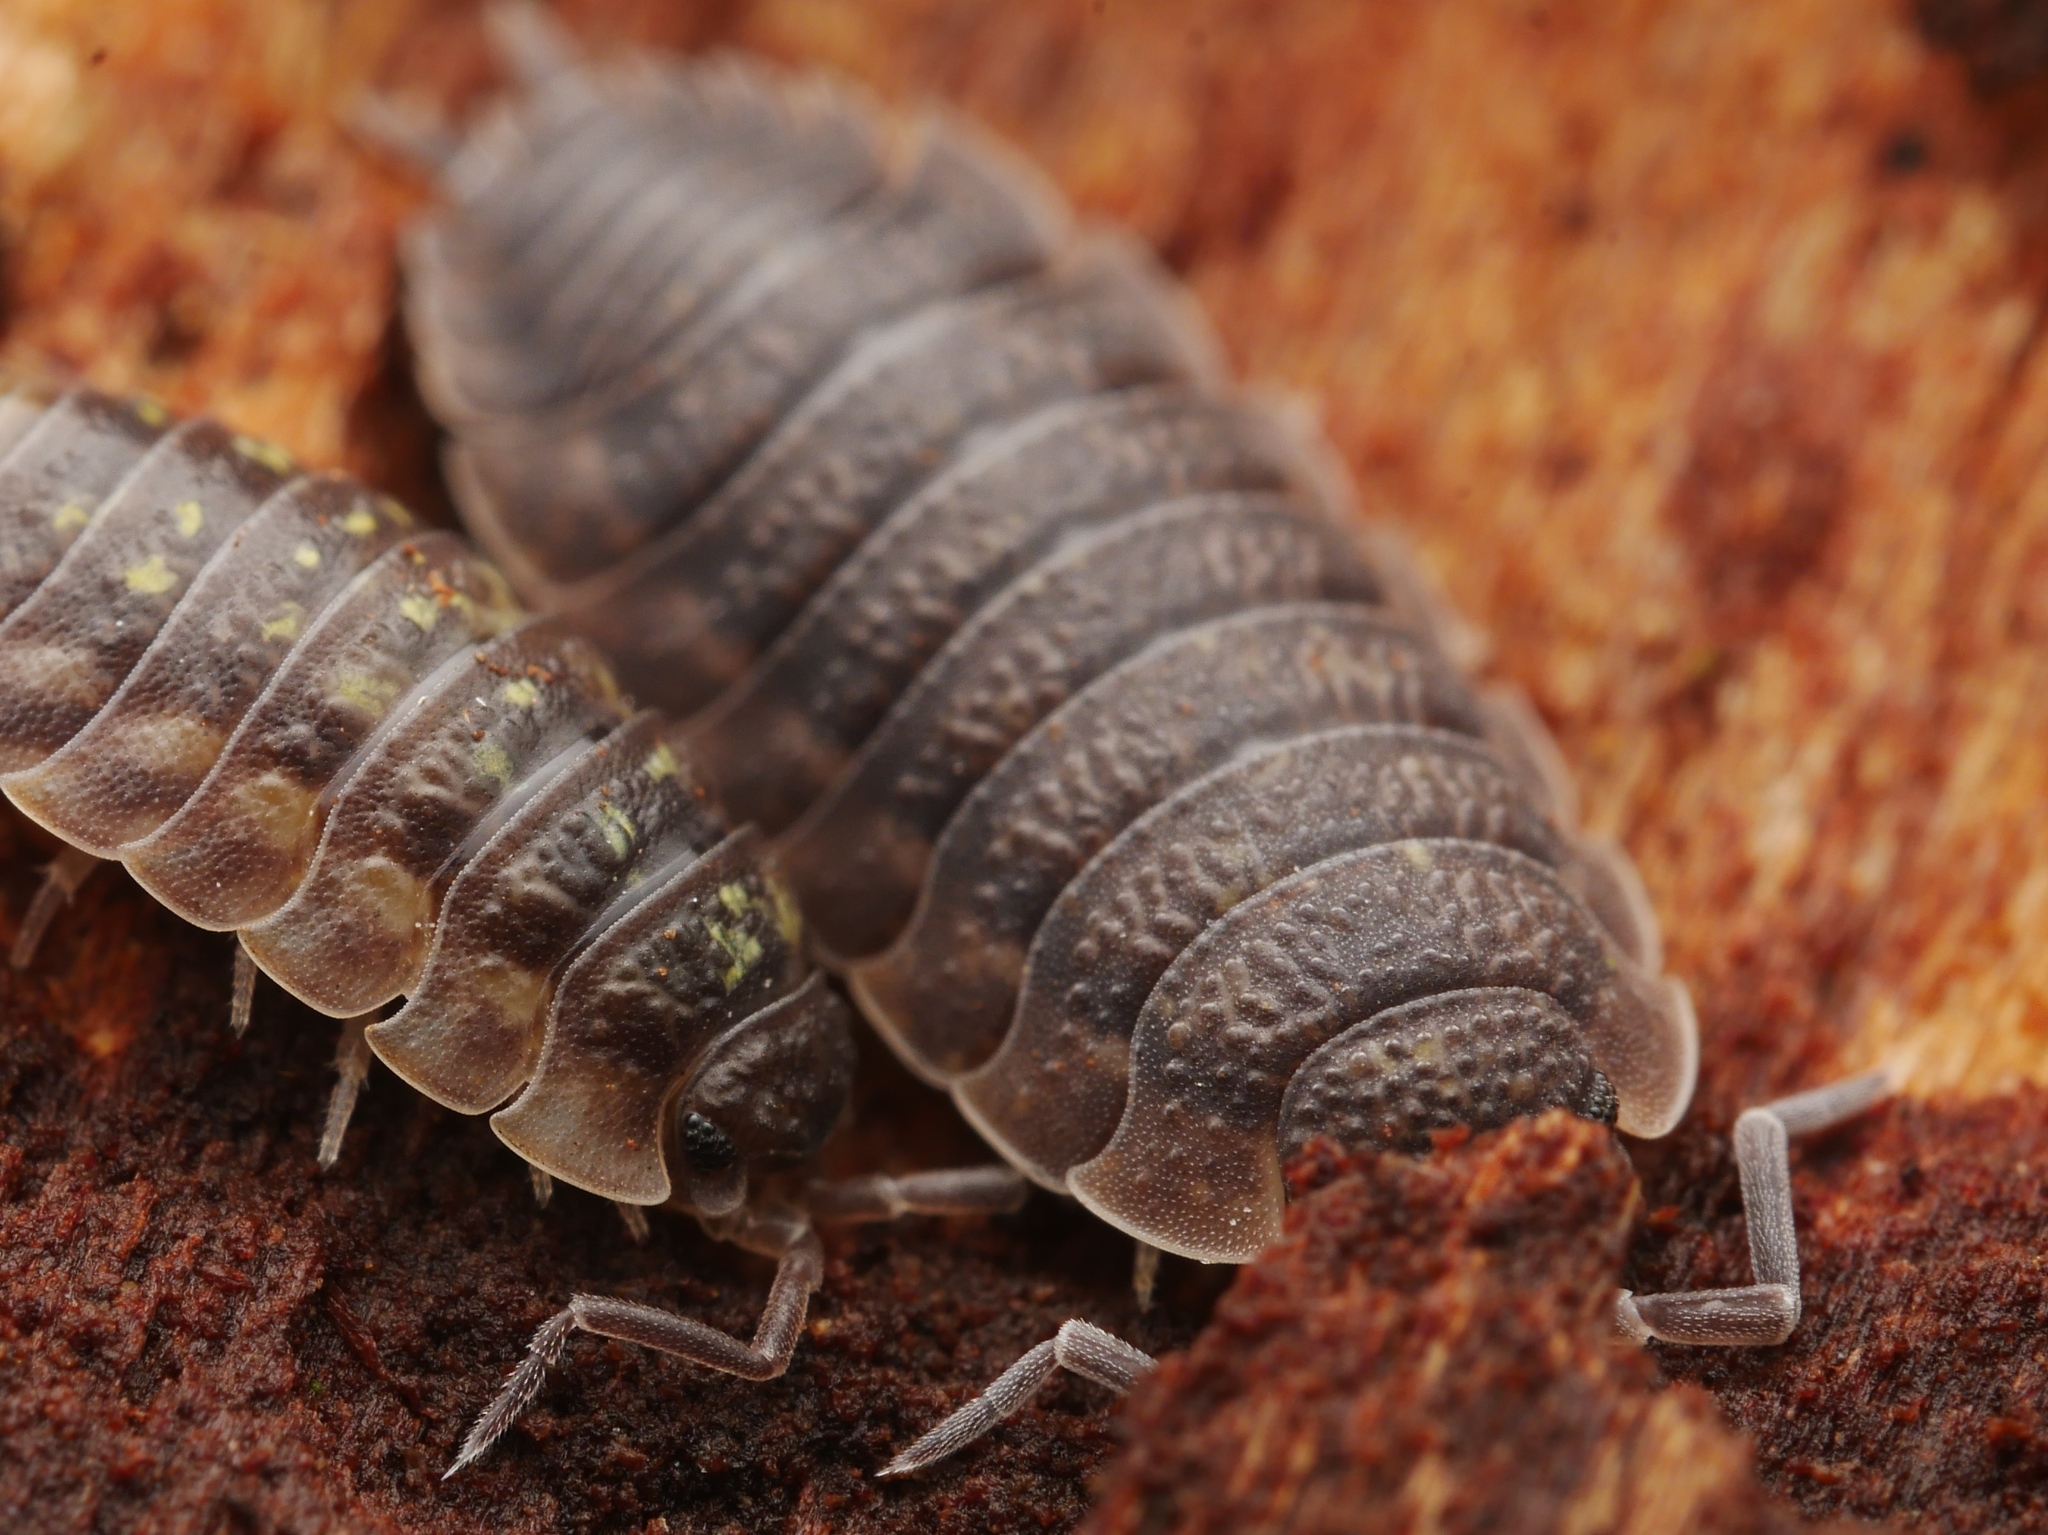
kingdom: Animalia
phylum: Arthropoda
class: Malacostraca
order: Isopoda
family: Porcellionidae
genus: Porcellio
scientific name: Porcellio scaber
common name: Common rough woodlouse
